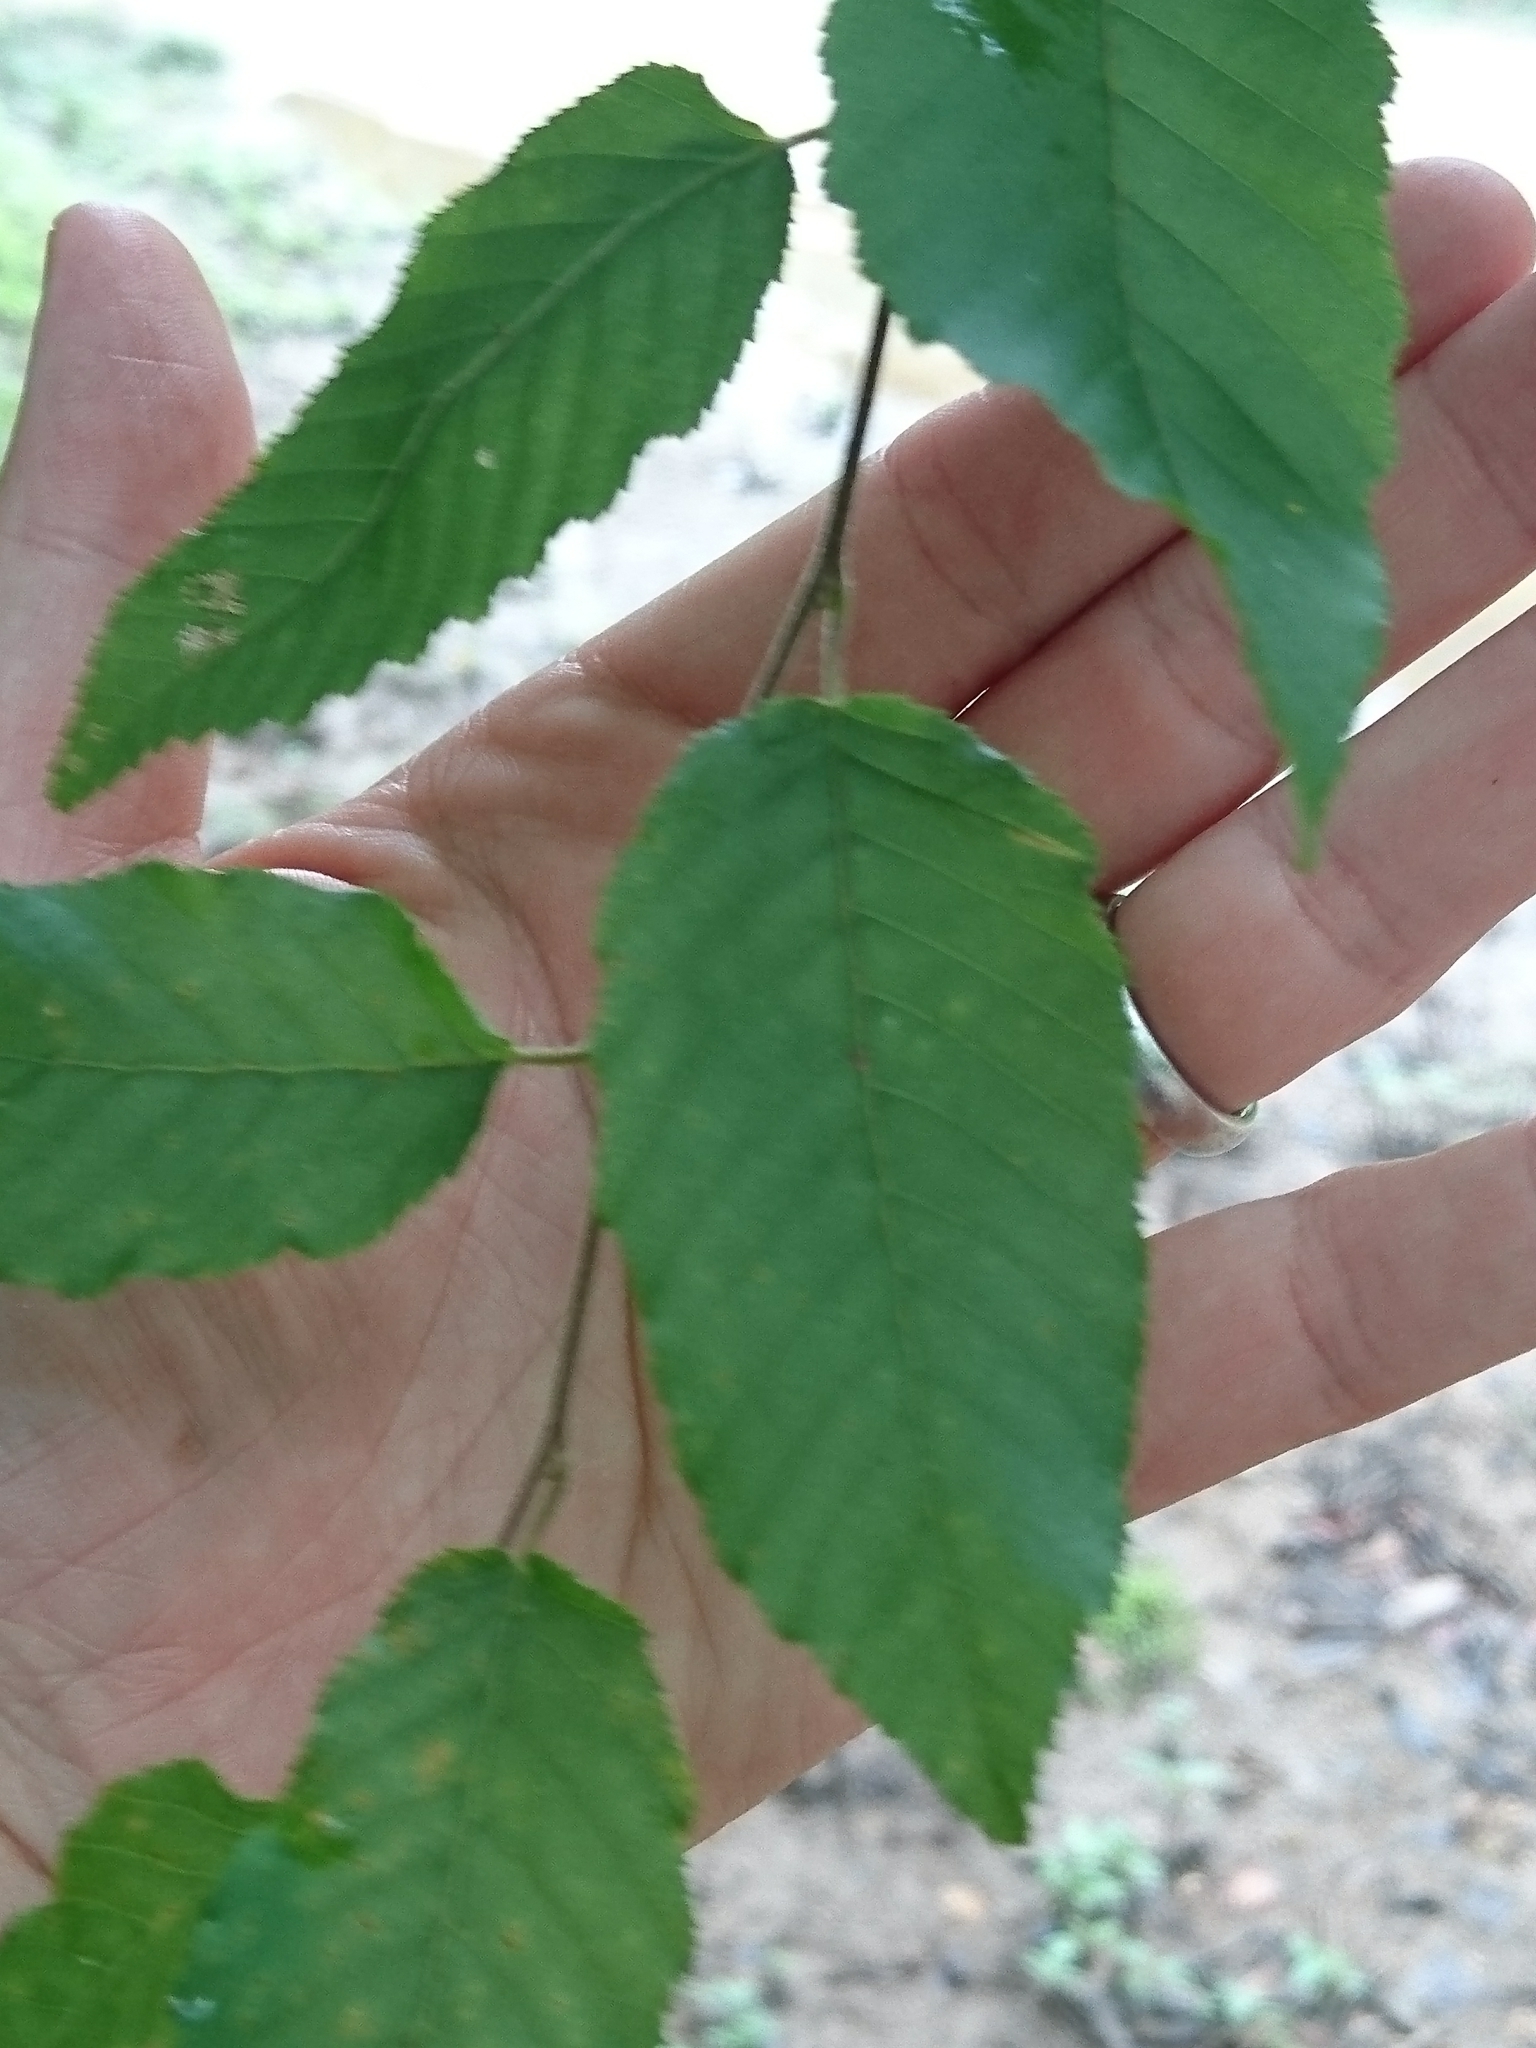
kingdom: Plantae
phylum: Tracheophyta
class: Magnoliopsida
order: Fagales
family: Betulaceae
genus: Carpinus
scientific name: Carpinus caroliniana
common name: American hornbeam
